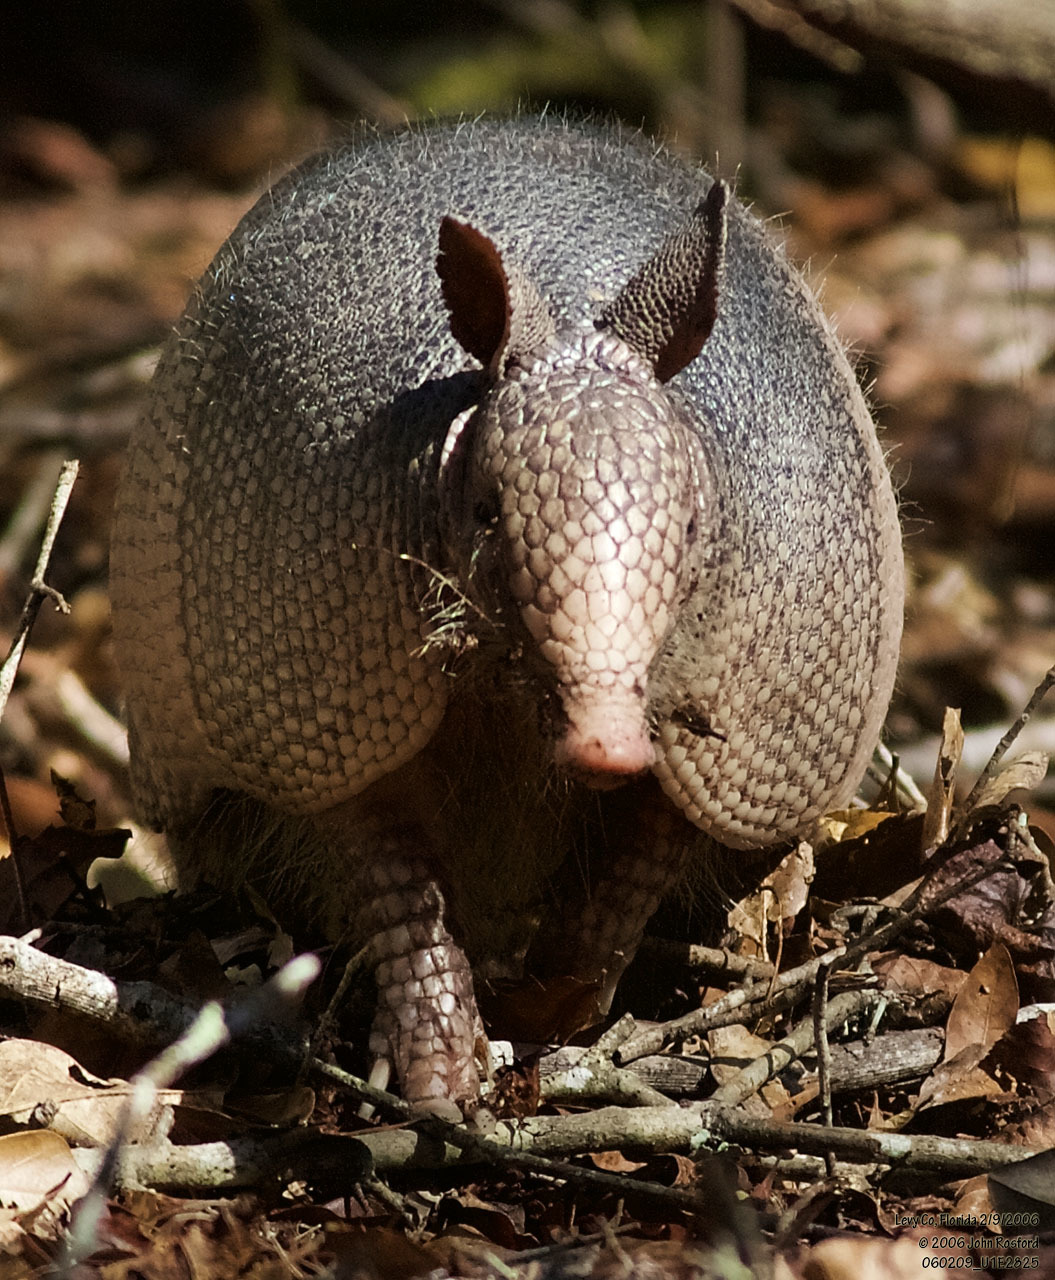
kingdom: Animalia
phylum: Chordata
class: Mammalia
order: Cingulata
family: Dasypodidae
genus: Dasypus
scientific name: Dasypus novemcinctus
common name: Nine-banded armadillo
